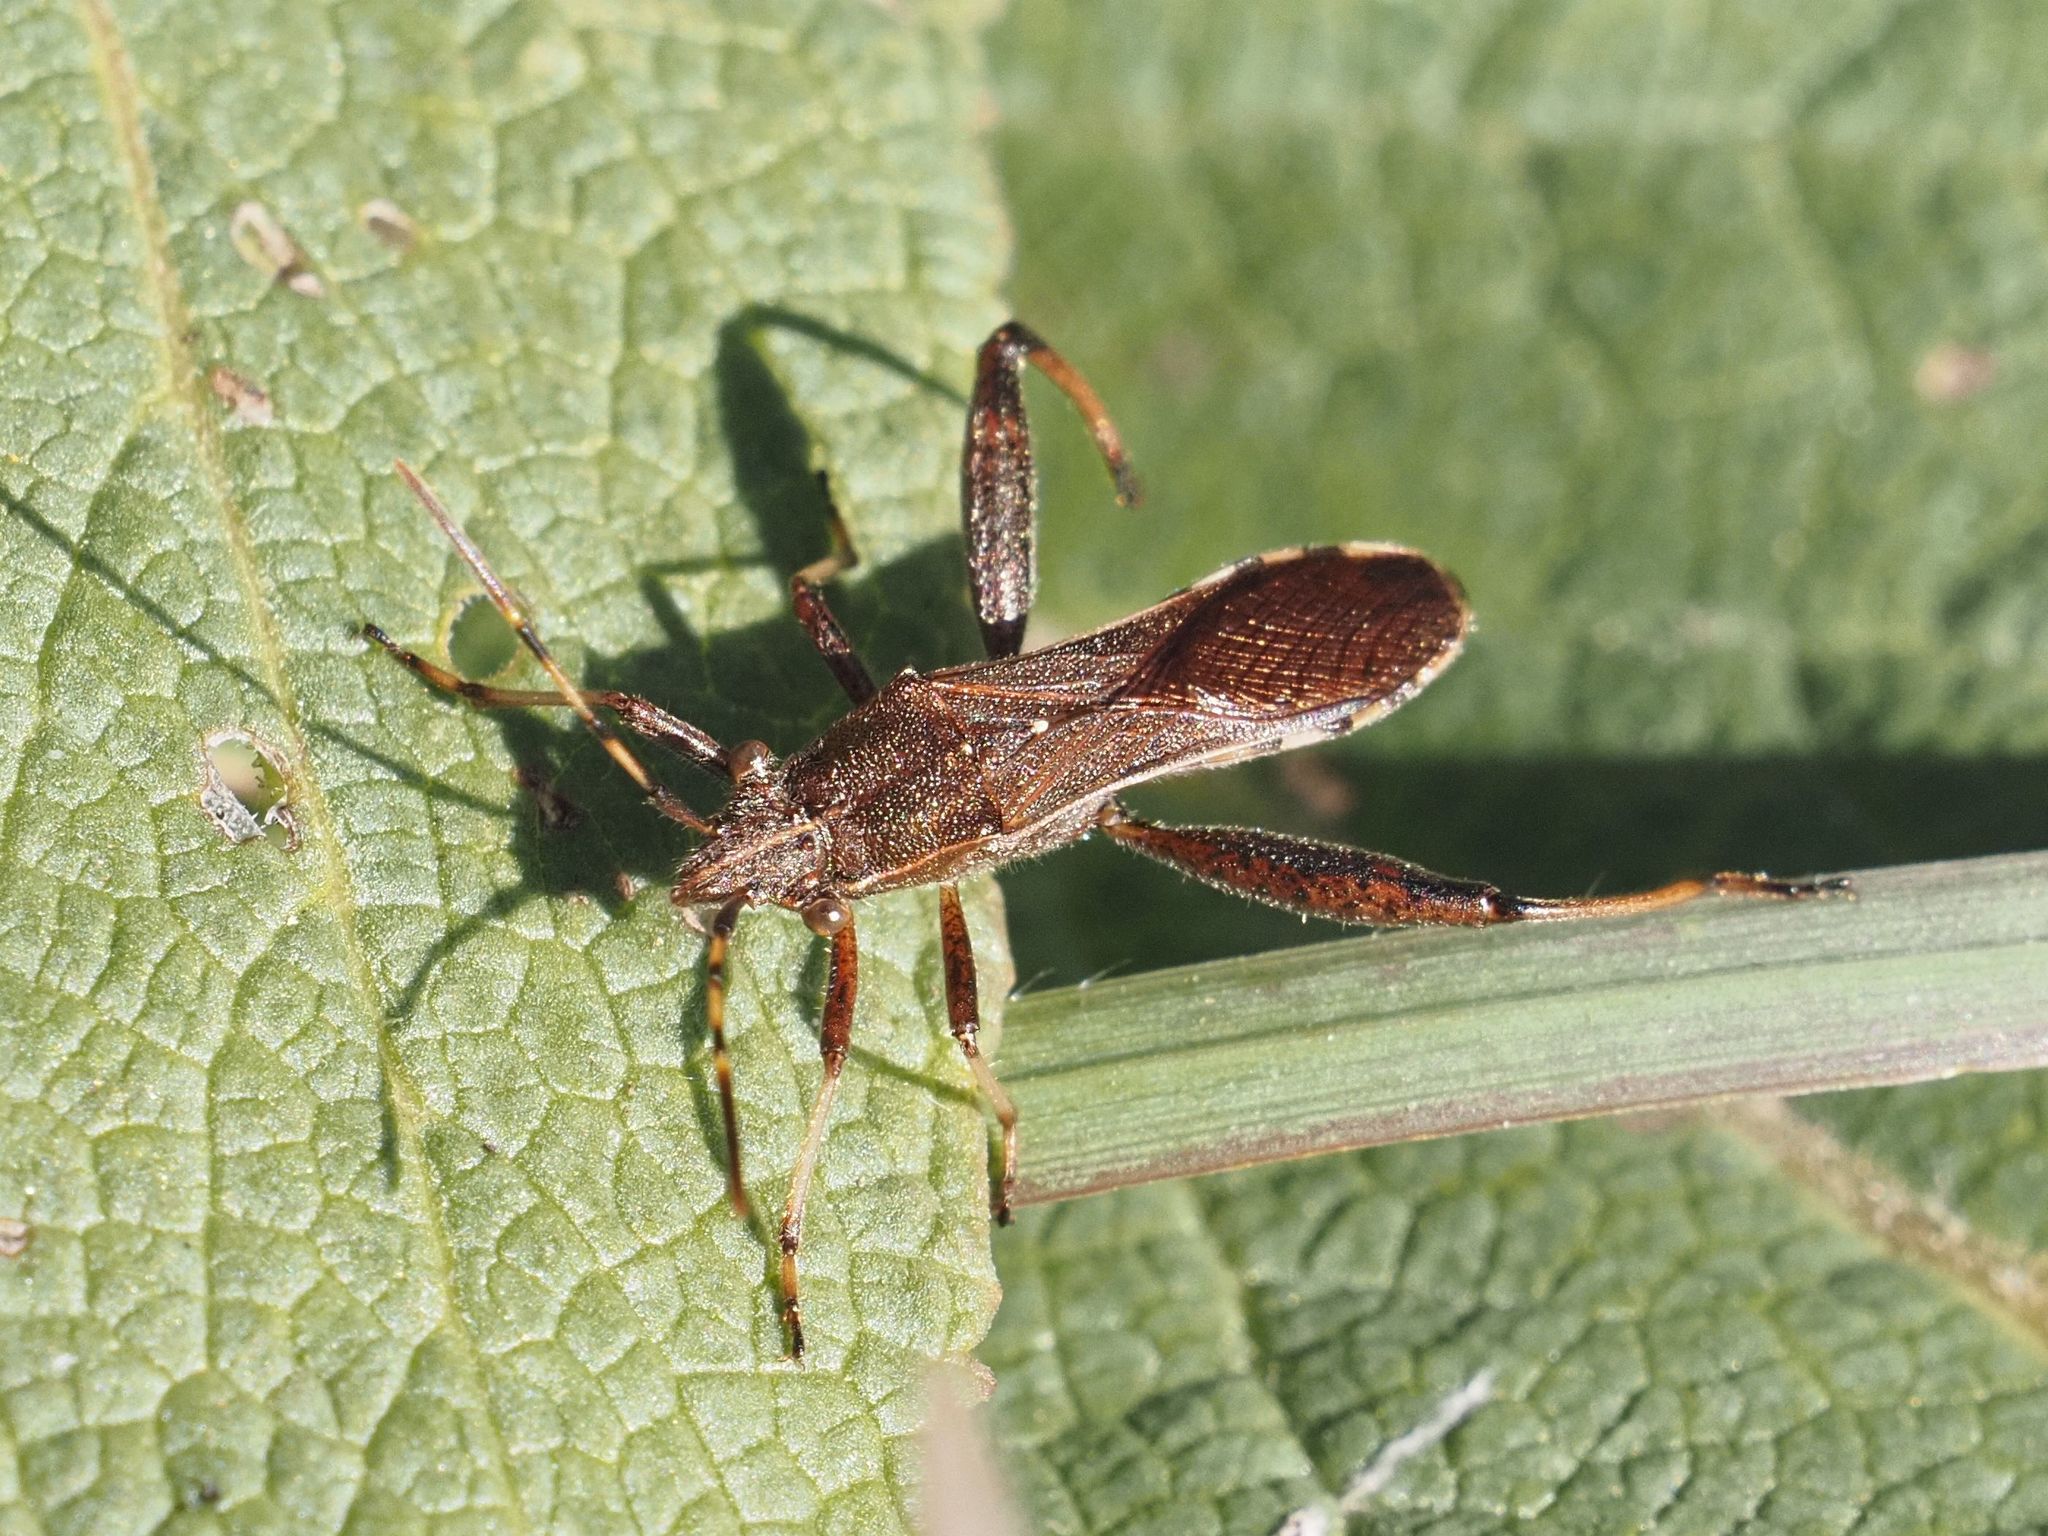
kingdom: Animalia
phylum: Arthropoda
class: Insecta
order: Hemiptera
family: Alydidae
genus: Camptopus
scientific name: Camptopus lateralis
